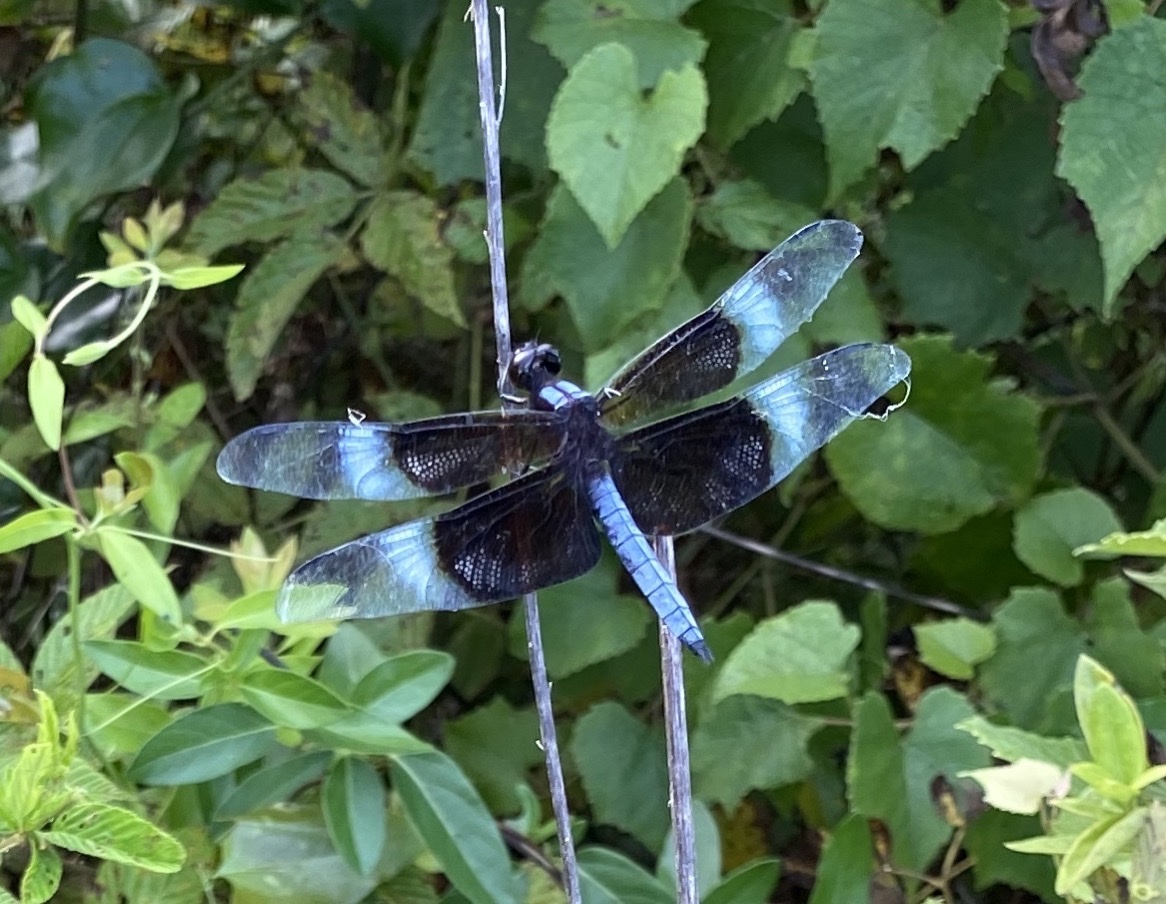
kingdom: Animalia
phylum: Arthropoda
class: Insecta
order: Odonata
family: Libellulidae
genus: Libellula
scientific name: Libellula luctuosa
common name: Widow skimmer
